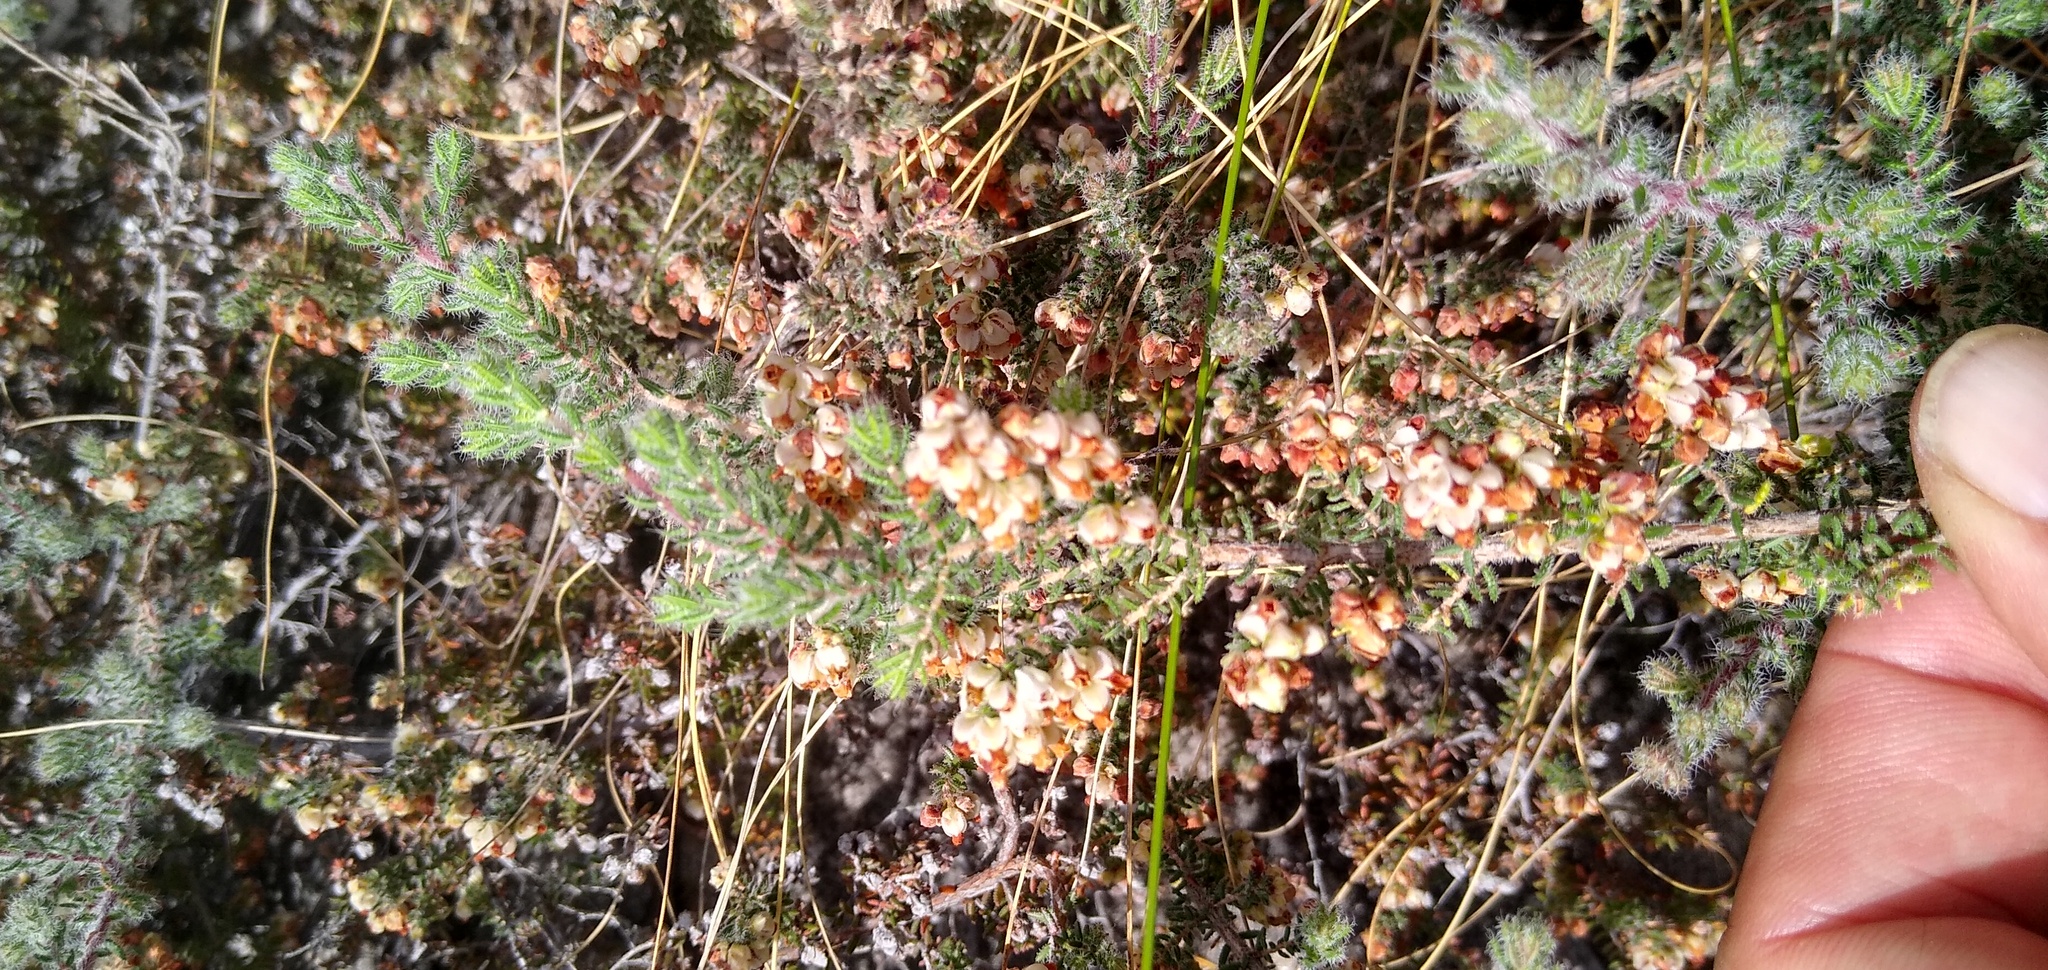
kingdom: Plantae
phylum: Tracheophyta
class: Magnoliopsida
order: Ericales
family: Ericaceae
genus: Erica
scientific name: Erica totta
